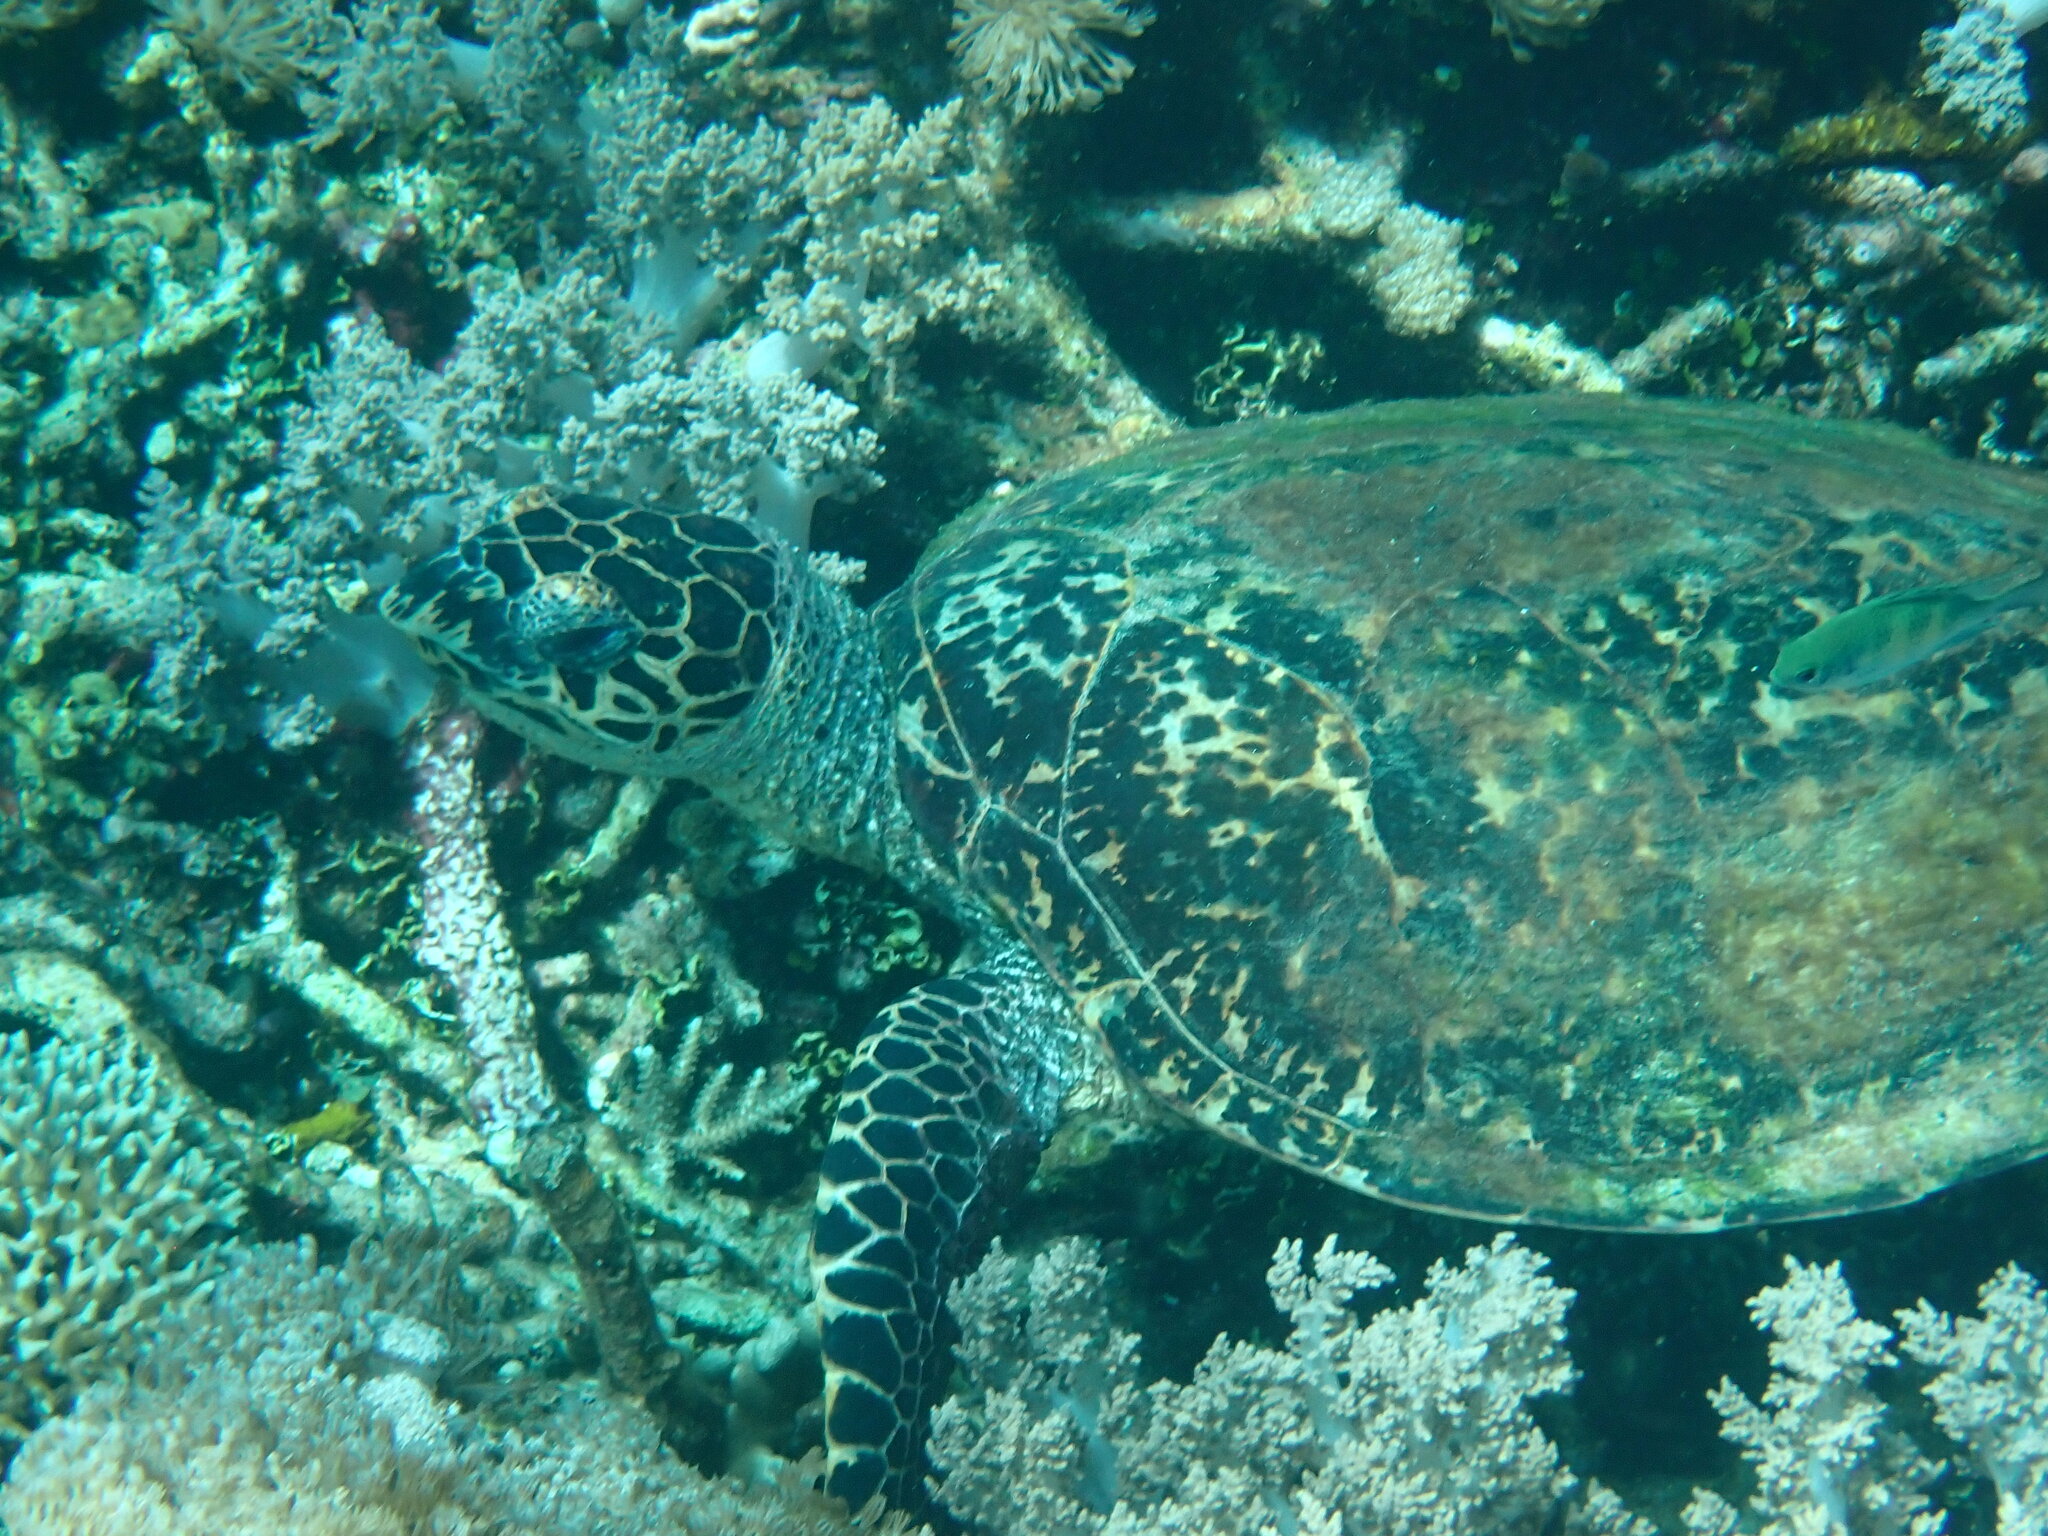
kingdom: Animalia
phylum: Chordata
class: Testudines
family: Cheloniidae
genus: Eretmochelys
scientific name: Eretmochelys imbricata
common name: Hawksbill turtle
